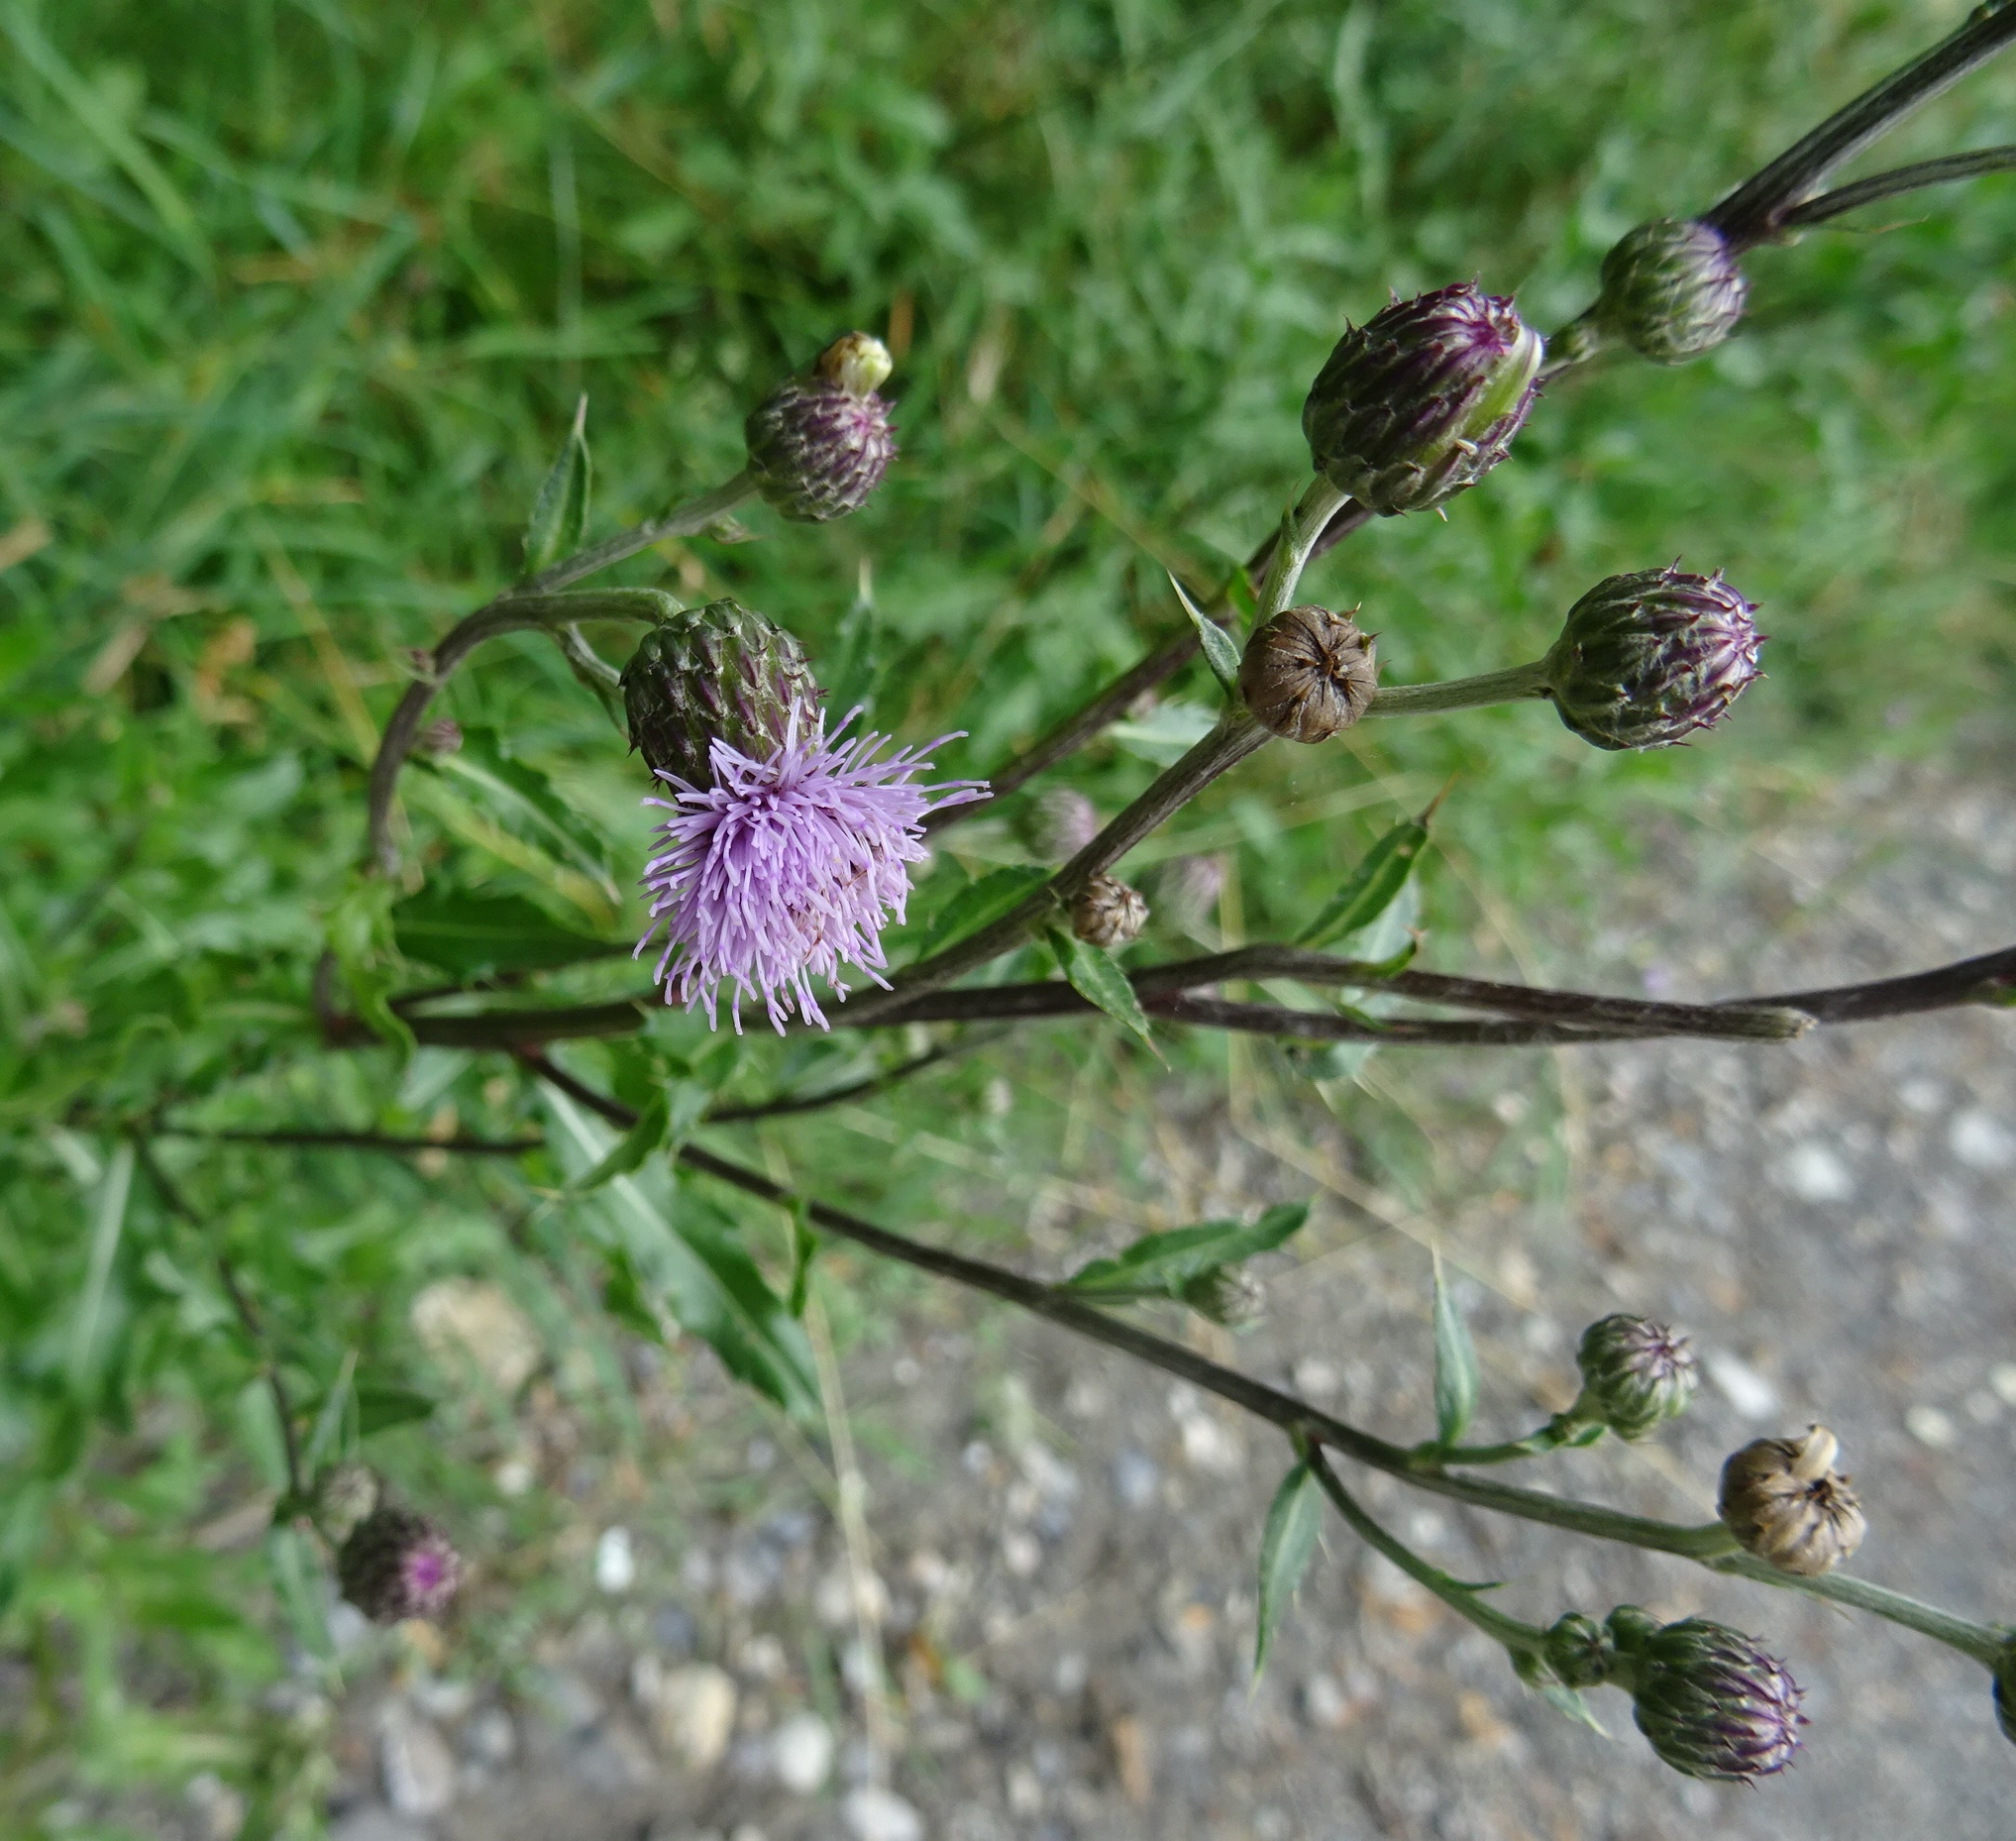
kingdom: Plantae
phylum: Tracheophyta
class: Magnoliopsida
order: Asterales
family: Asteraceae
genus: Cirsium
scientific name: Cirsium arvense
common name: Creeping thistle
